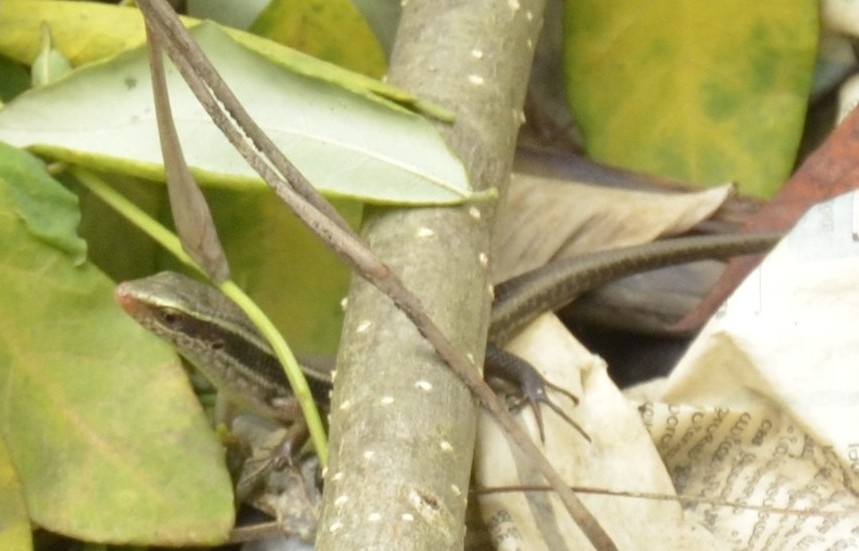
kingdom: Animalia
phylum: Chordata
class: Squamata
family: Scincidae
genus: Eutropis
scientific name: Eutropis carinata
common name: Keeled indian mabuya
